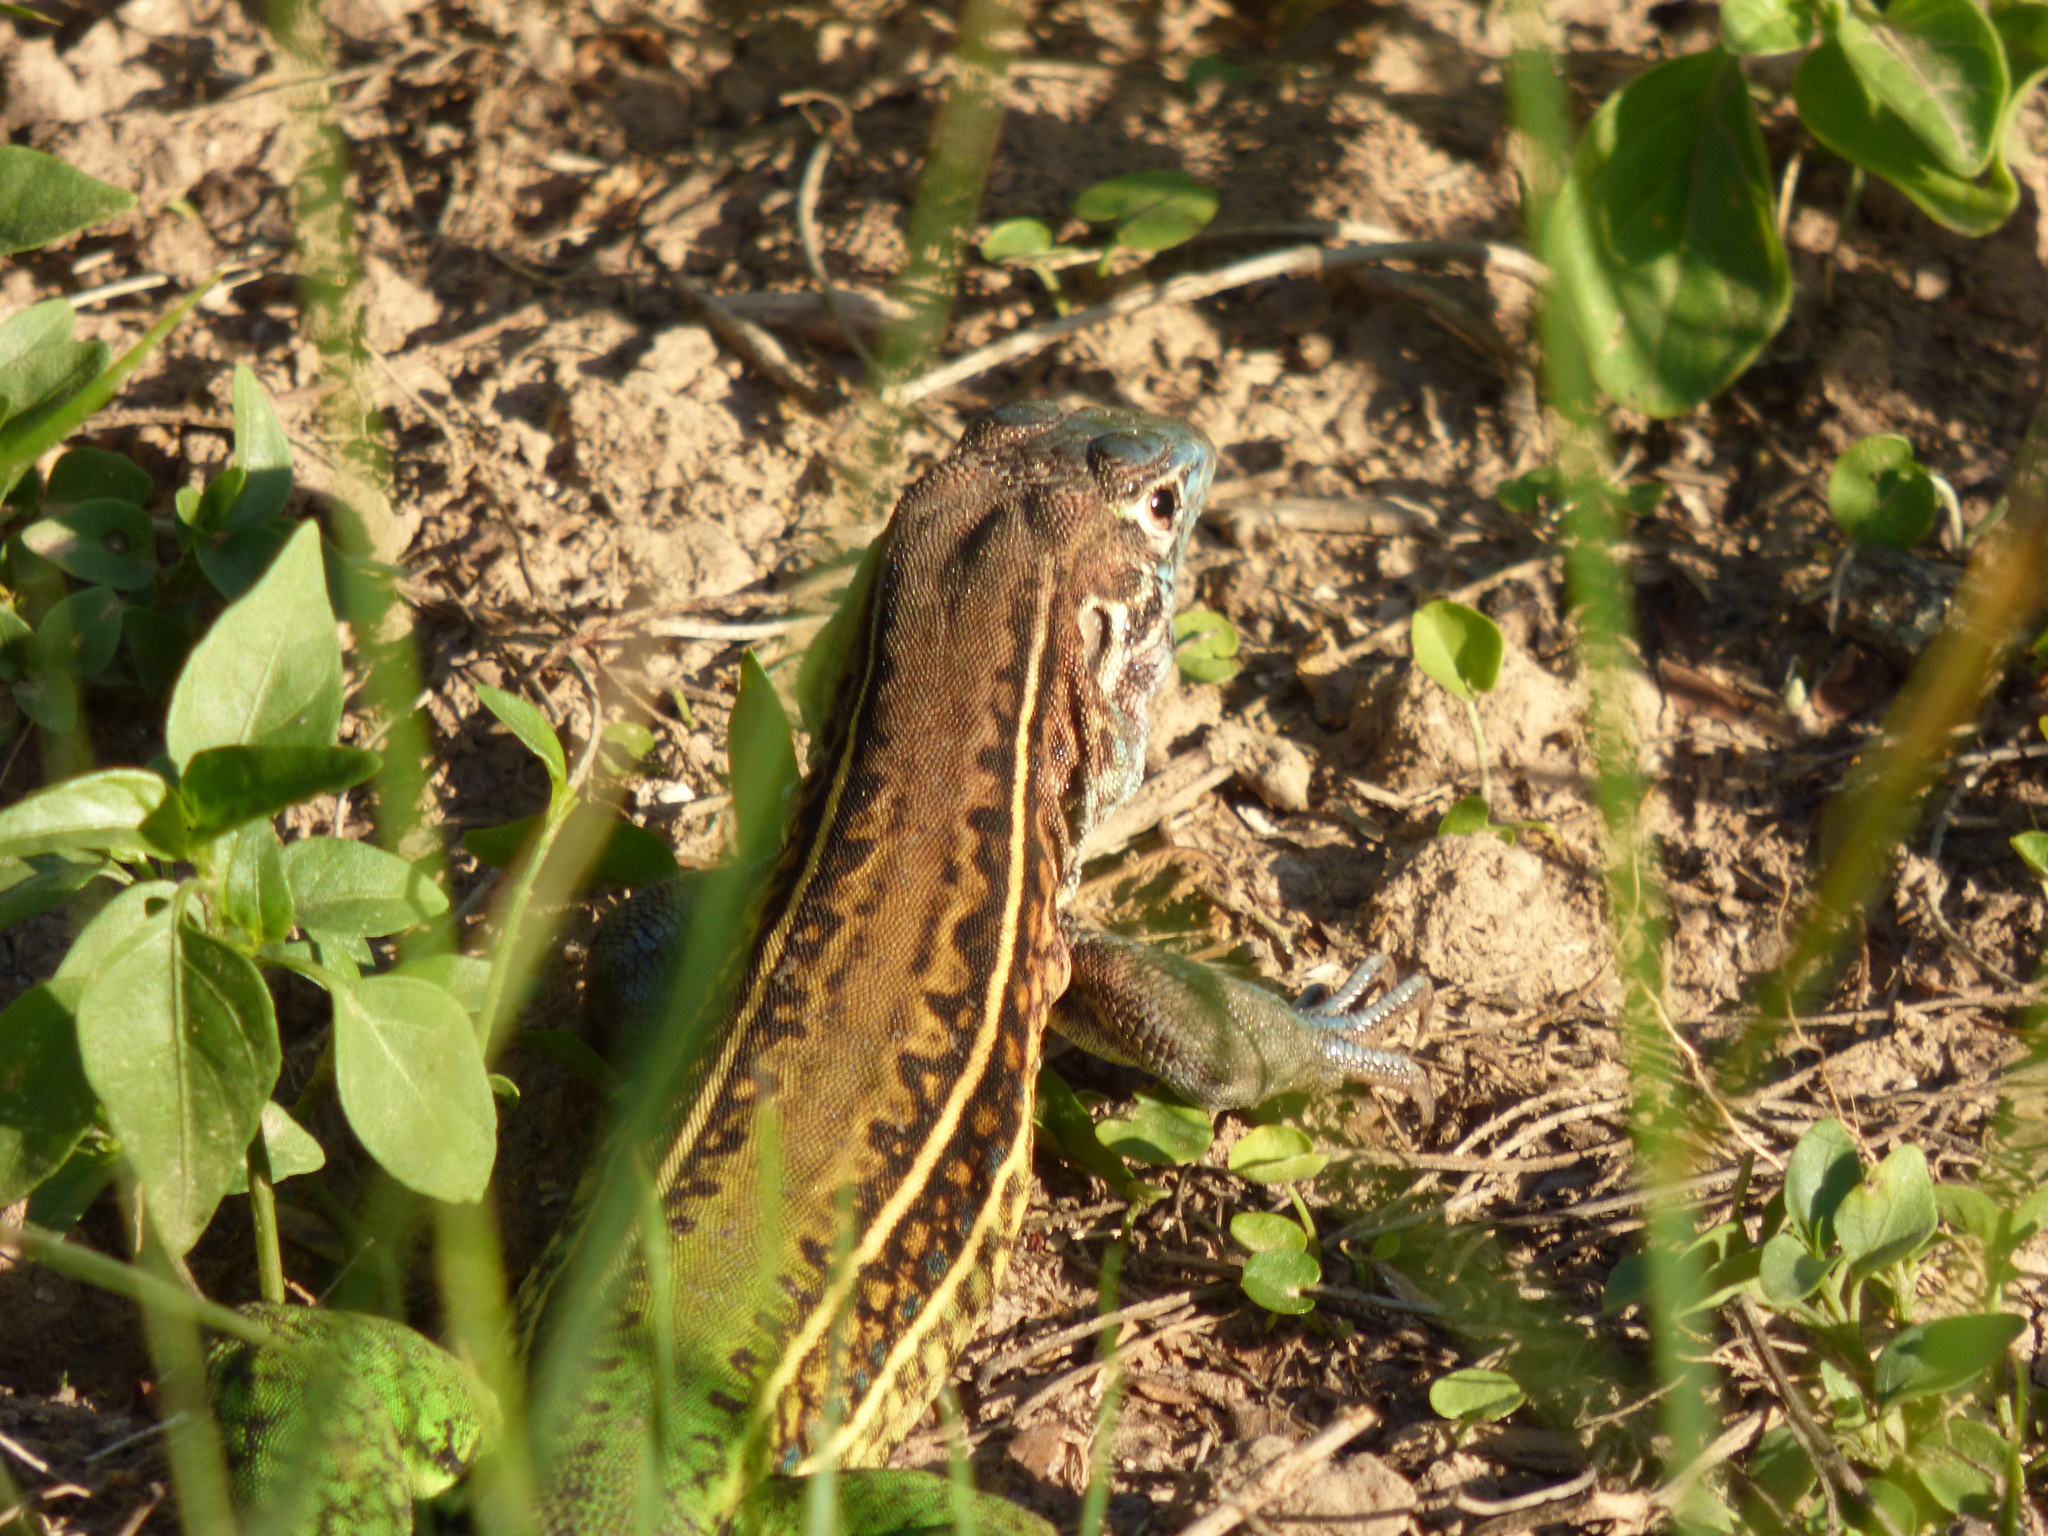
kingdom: Animalia
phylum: Chordata
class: Squamata
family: Teiidae
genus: Teius
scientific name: Teius teyou
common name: Four-toed tegu
